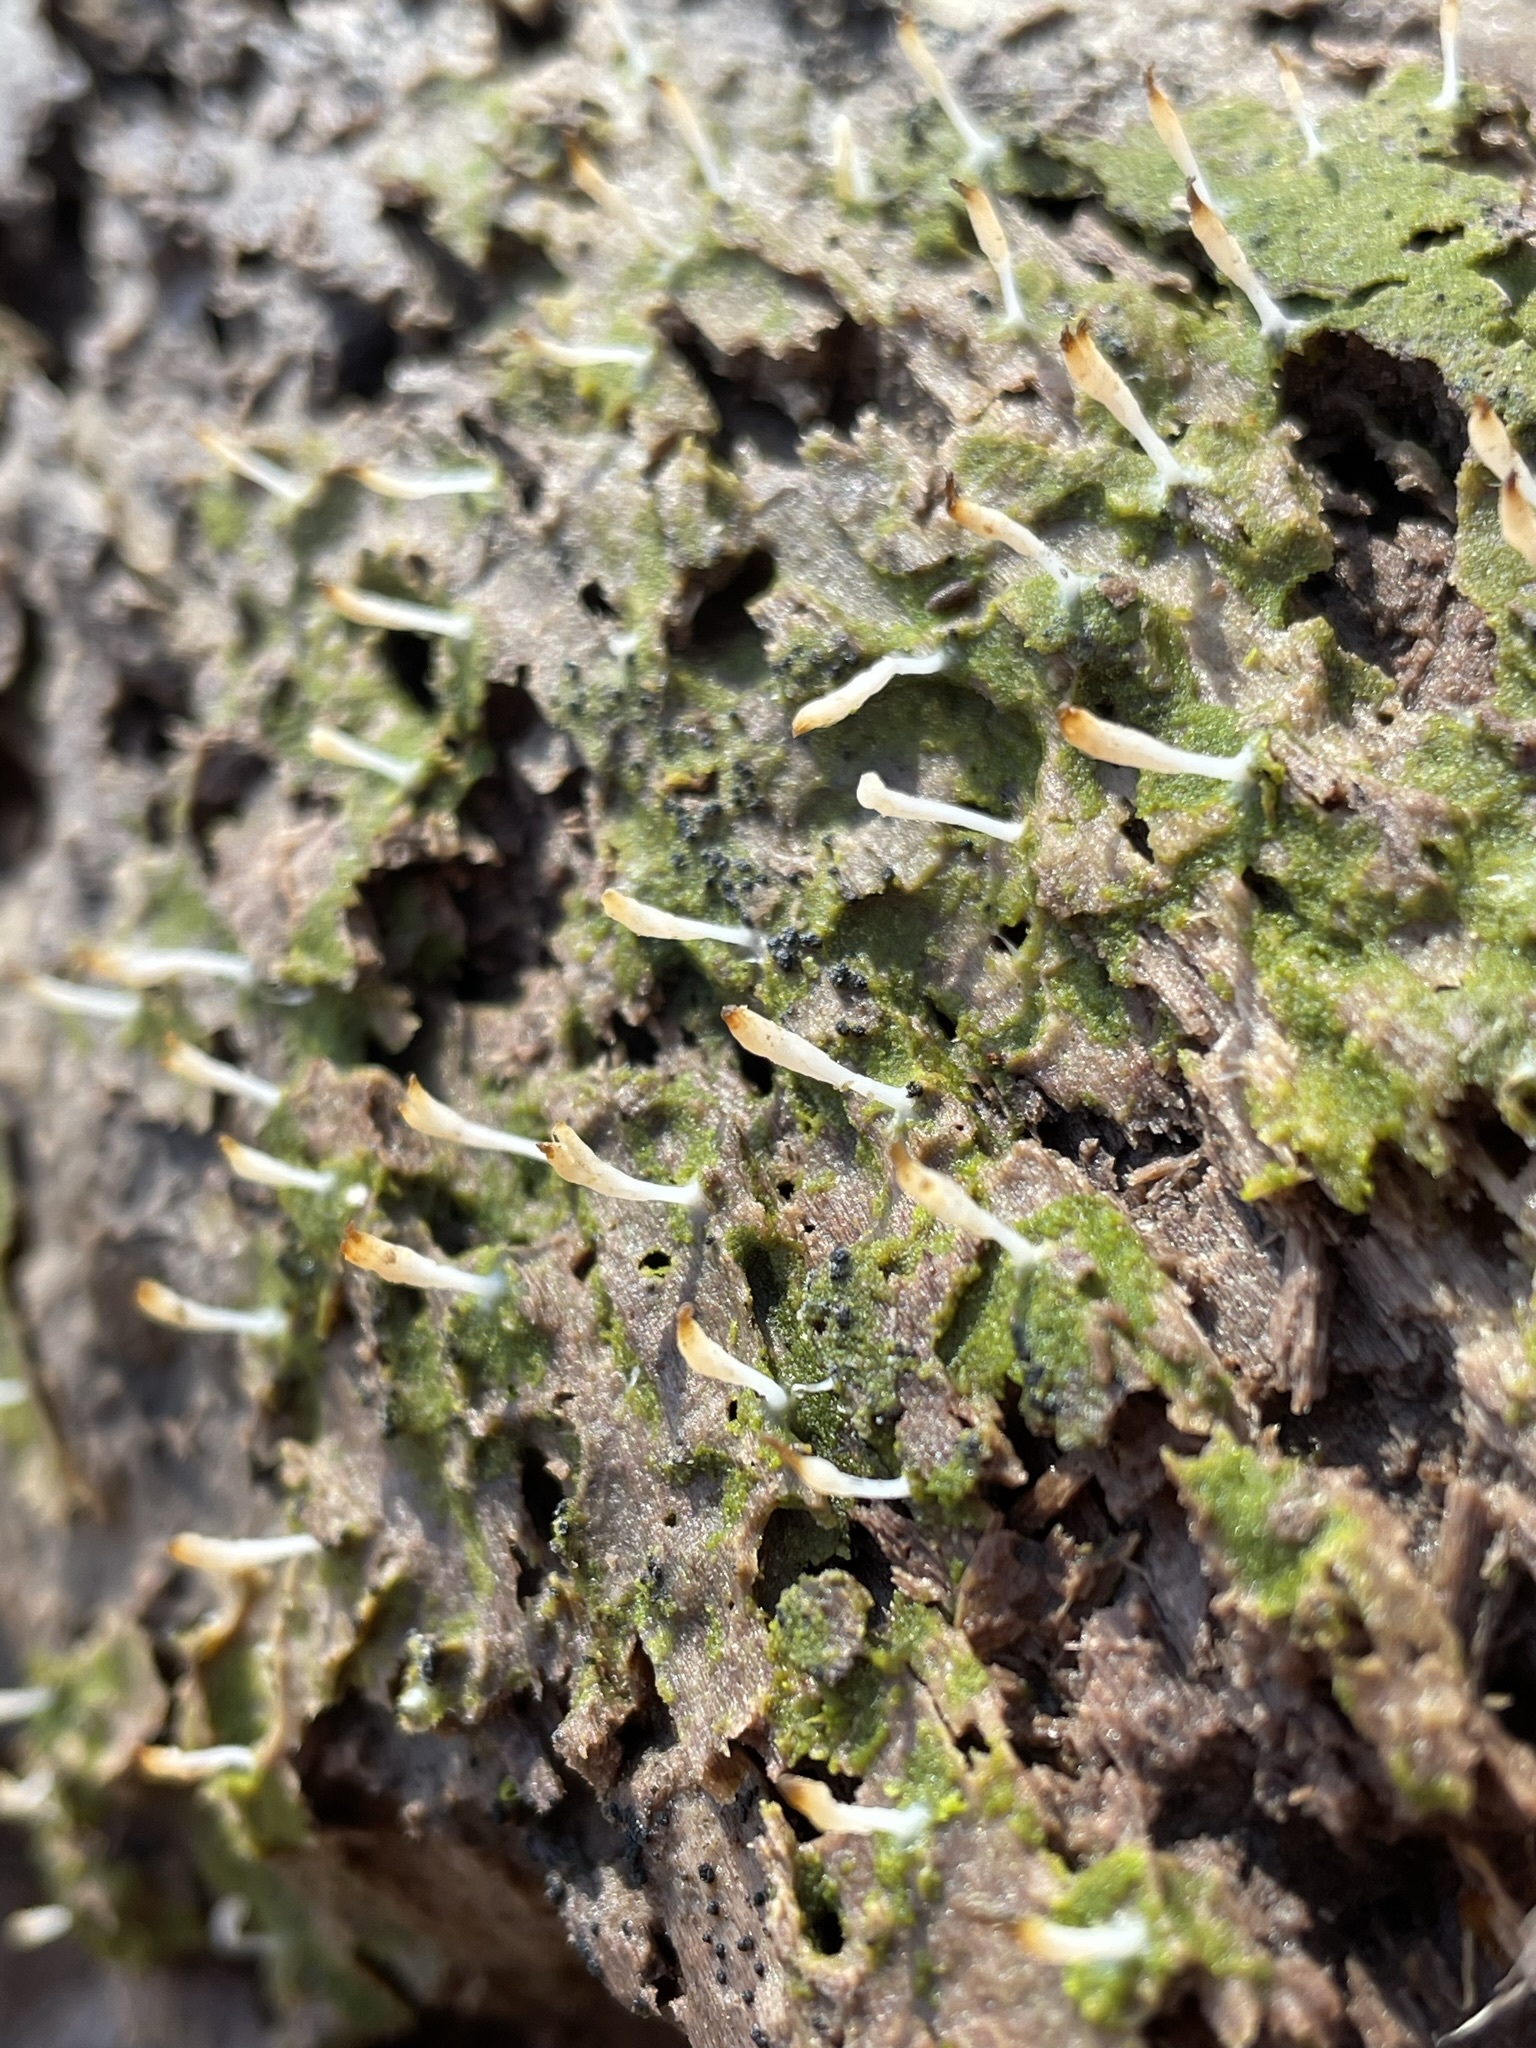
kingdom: Fungi
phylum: Basidiomycota
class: Agaricomycetes
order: Cantharellales
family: Hydnaceae
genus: Multiclavula
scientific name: Multiclavula mucida
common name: White green-algae coral
